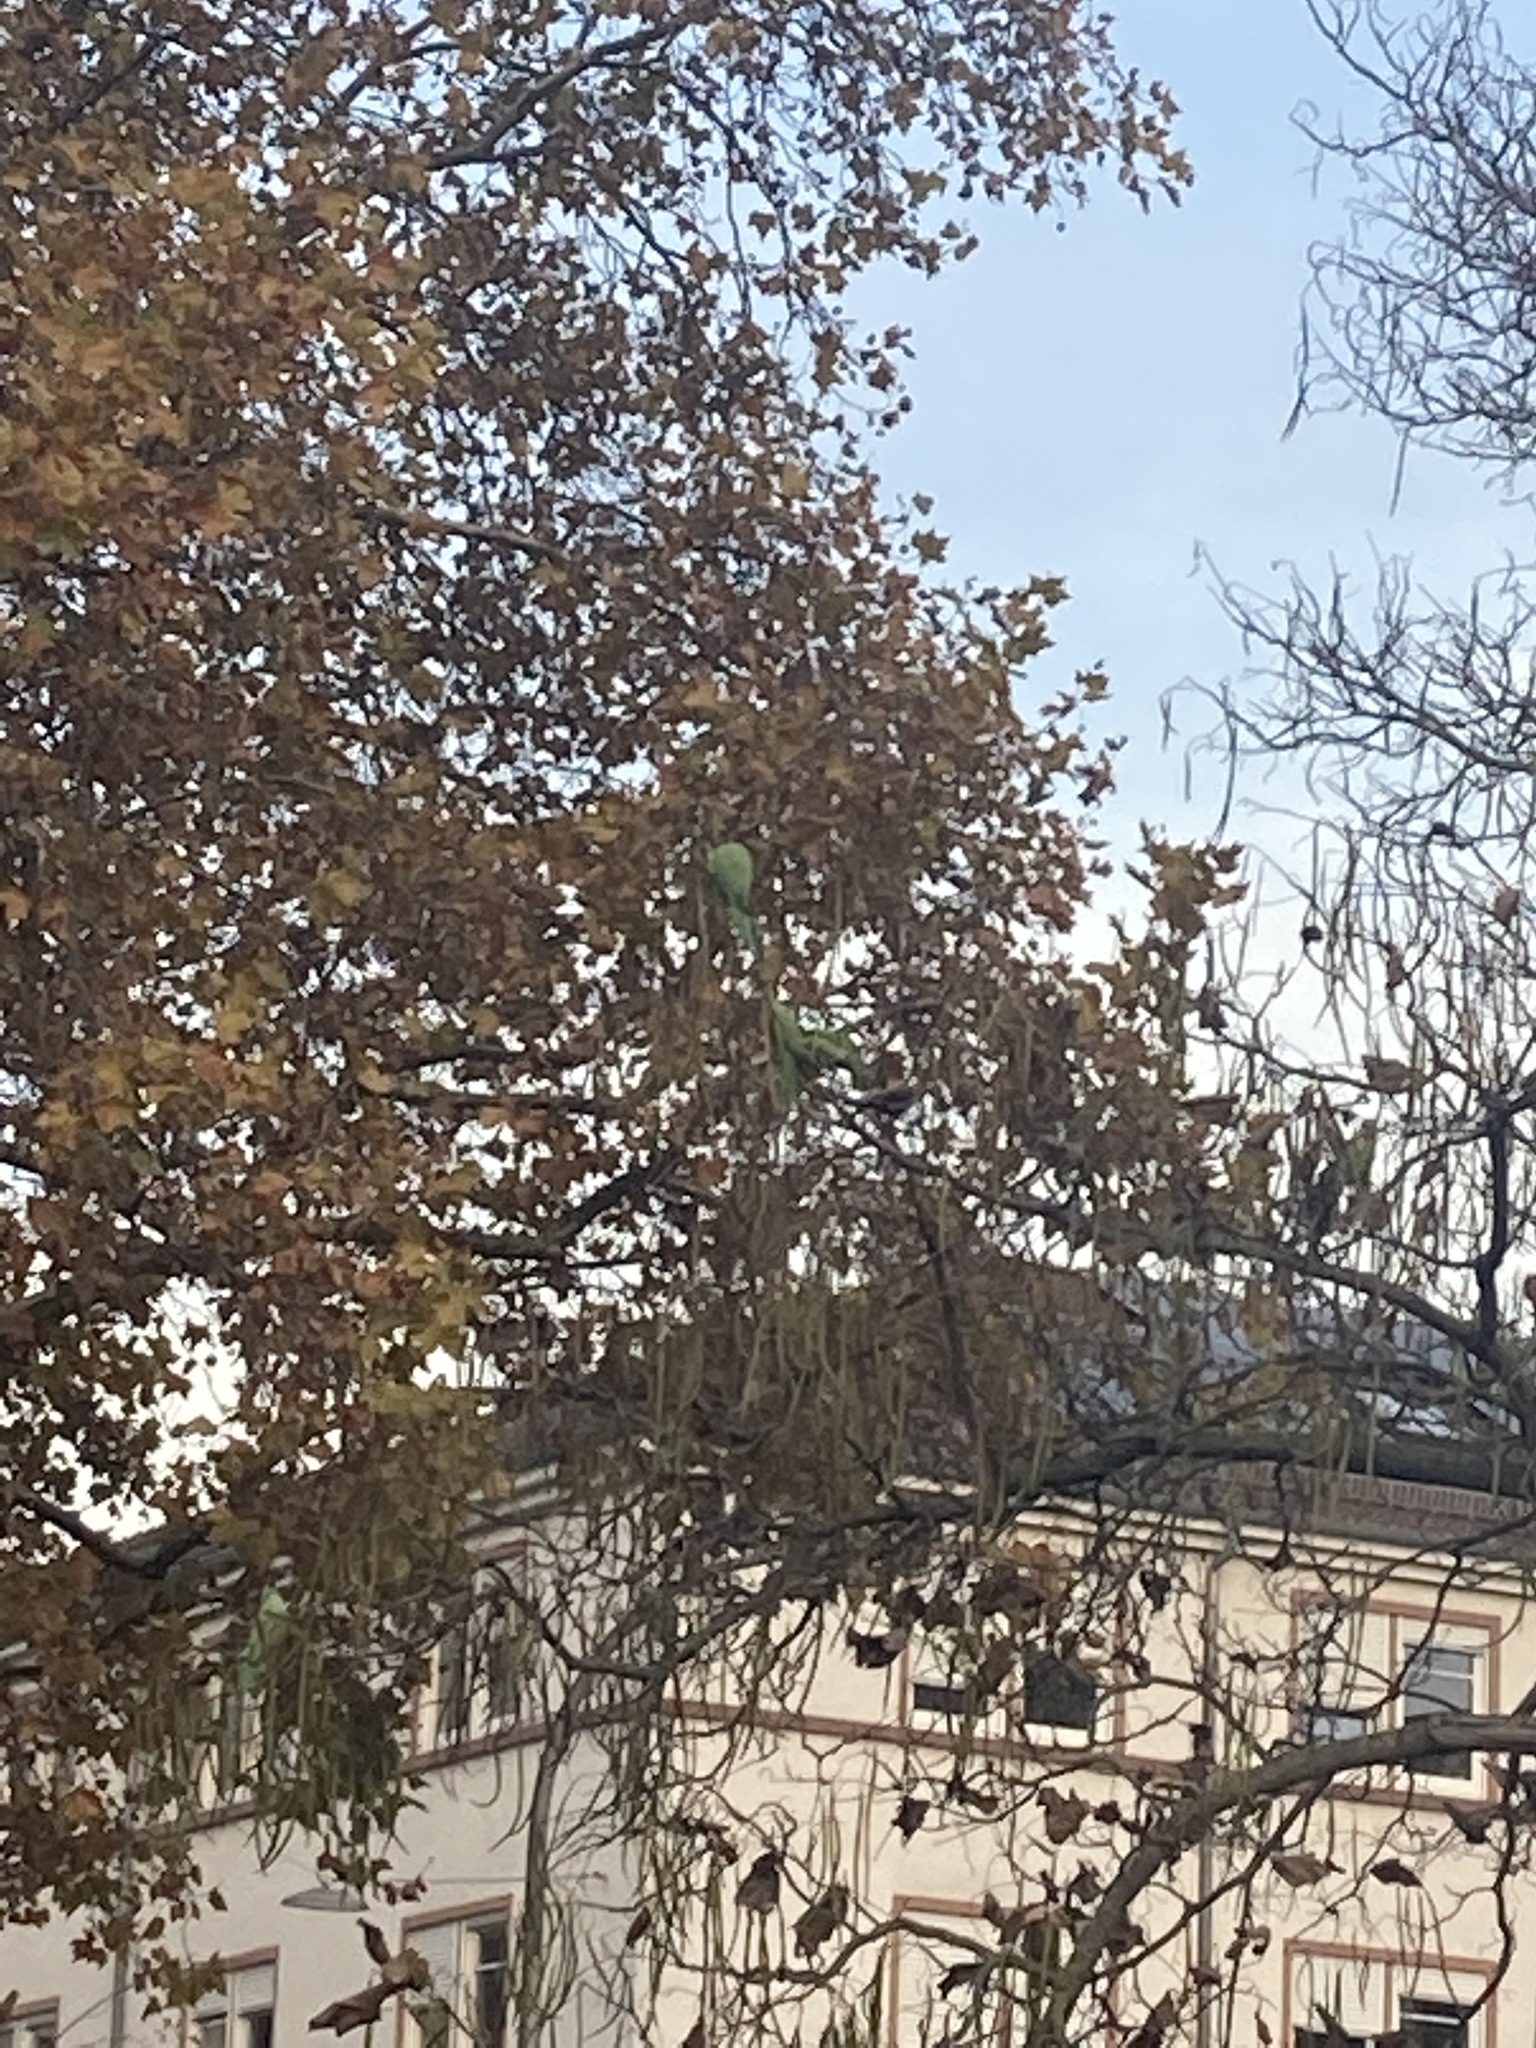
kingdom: Animalia
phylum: Chordata
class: Aves
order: Psittaciformes
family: Psittacidae
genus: Psittacula
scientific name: Psittacula krameri
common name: Rose-ringed parakeet
